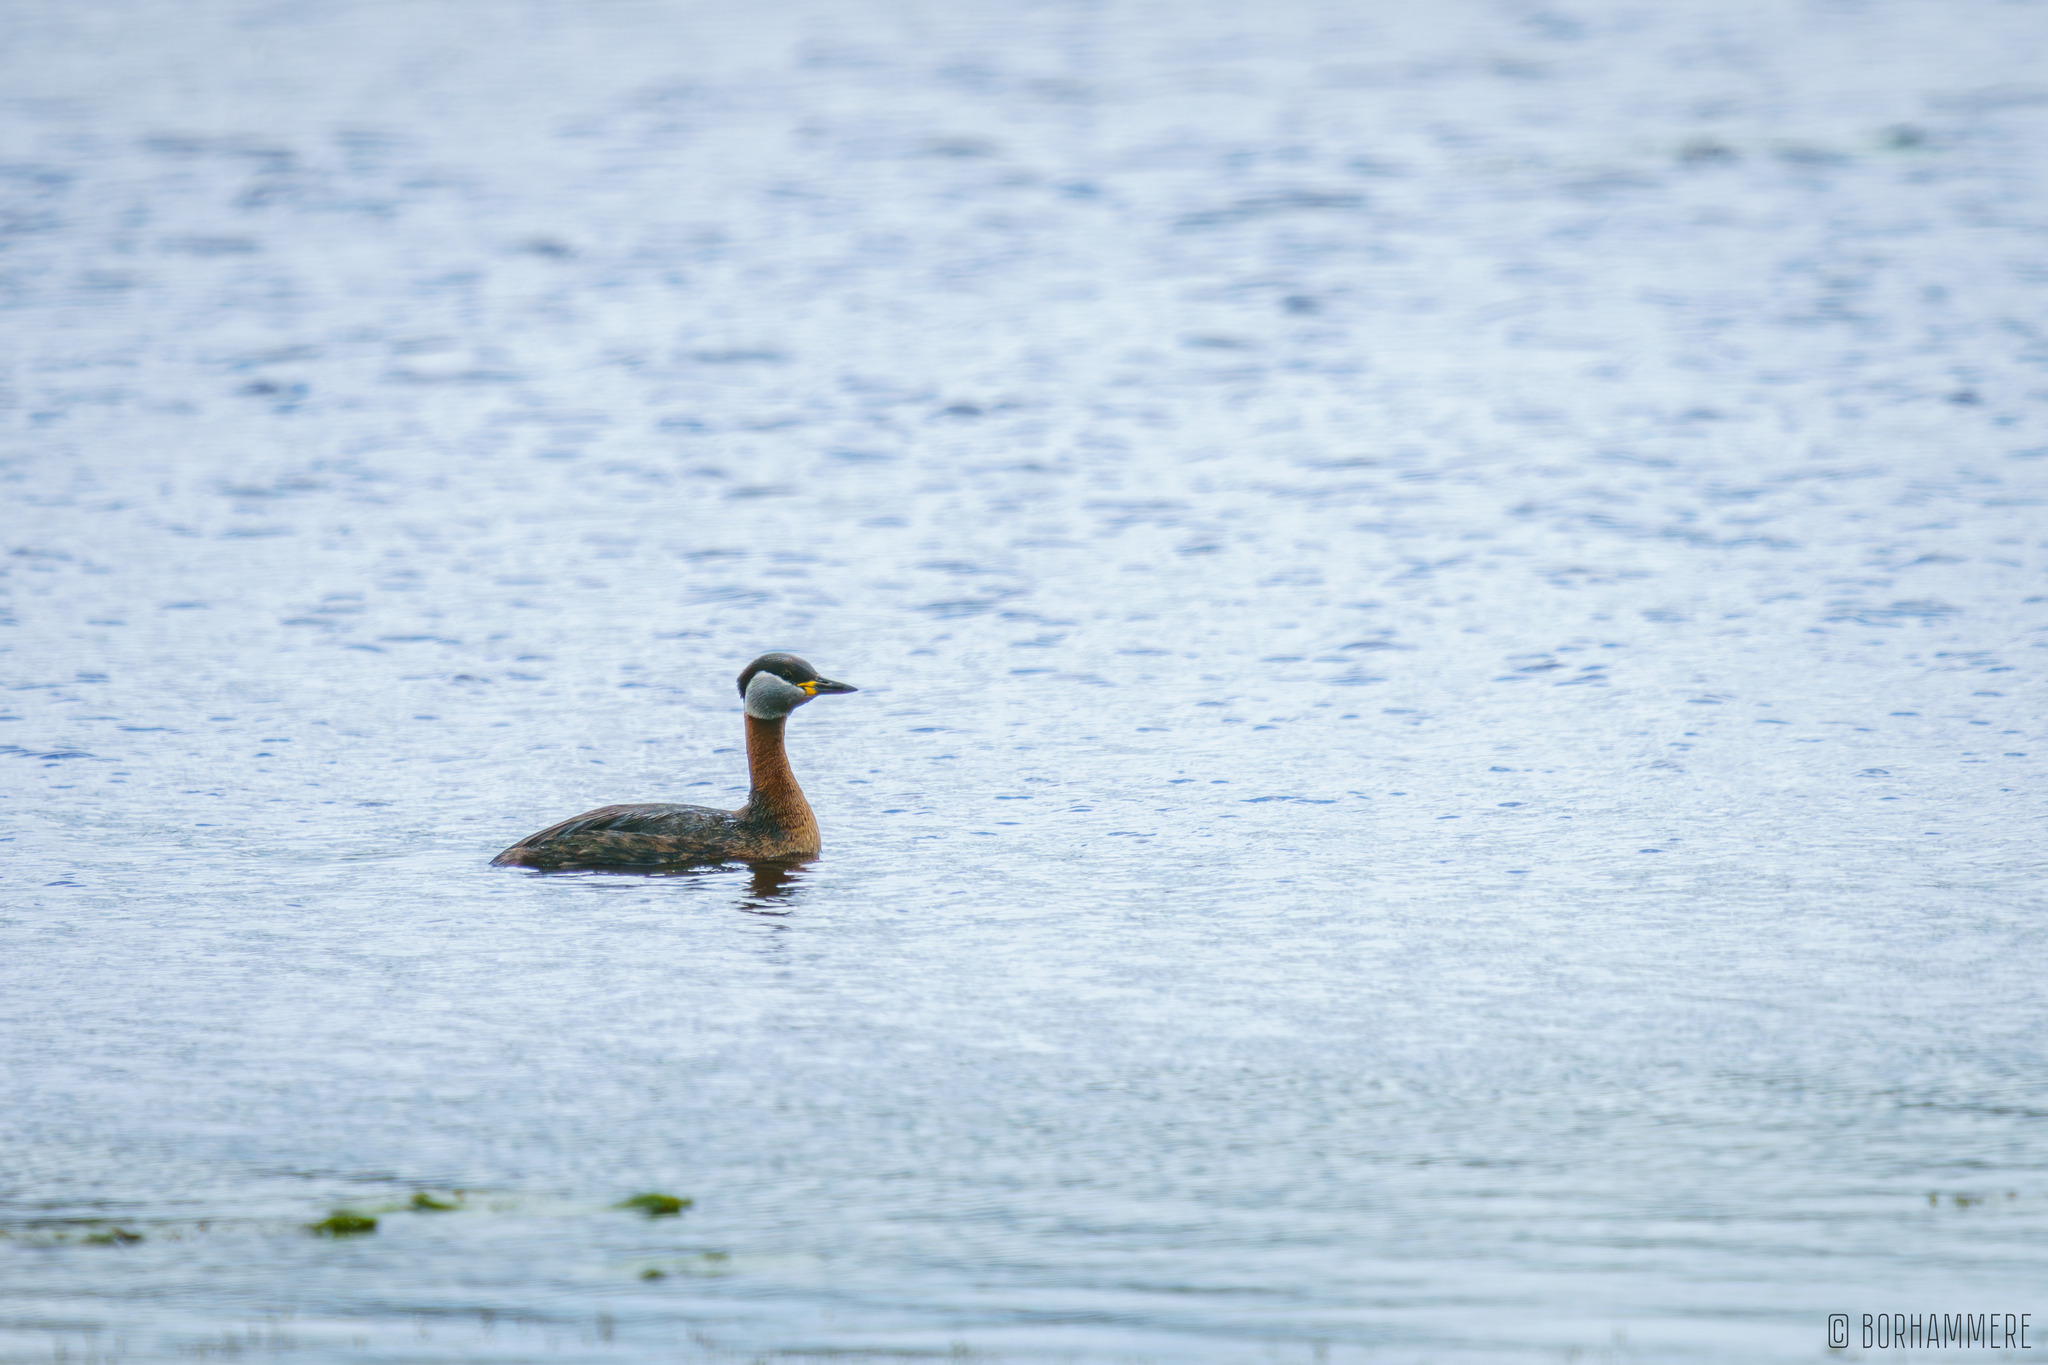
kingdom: Animalia
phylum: Chordata
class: Aves
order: Podicipediformes
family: Podicipedidae
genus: Podiceps
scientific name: Podiceps grisegena
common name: Red-necked grebe
